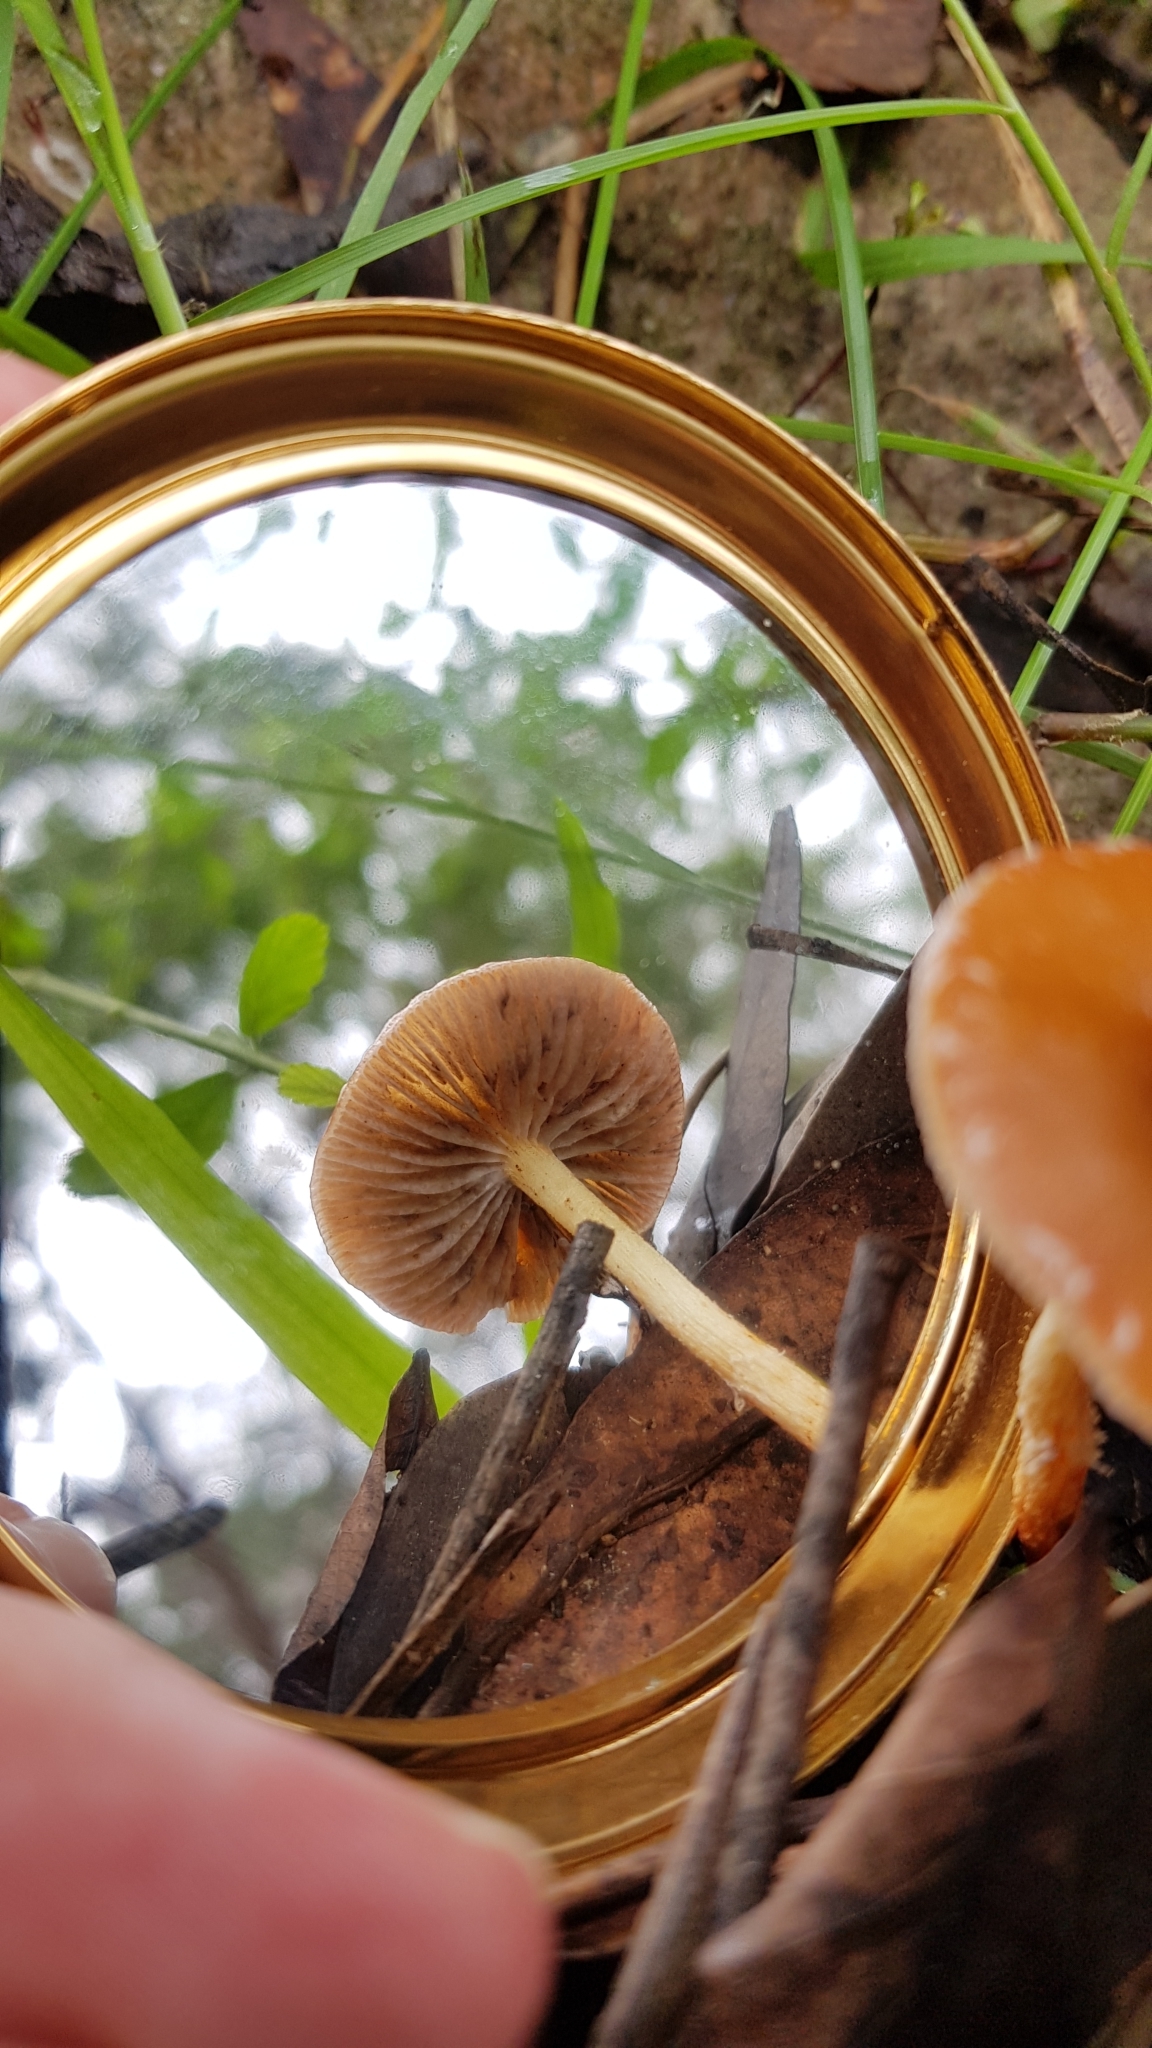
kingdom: Fungi
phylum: Basidiomycota
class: Agaricomycetes
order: Agaricales
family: Strophariaceae
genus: Leratiomyces
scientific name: Leratiomyces ceres
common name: Redlead roundhead
